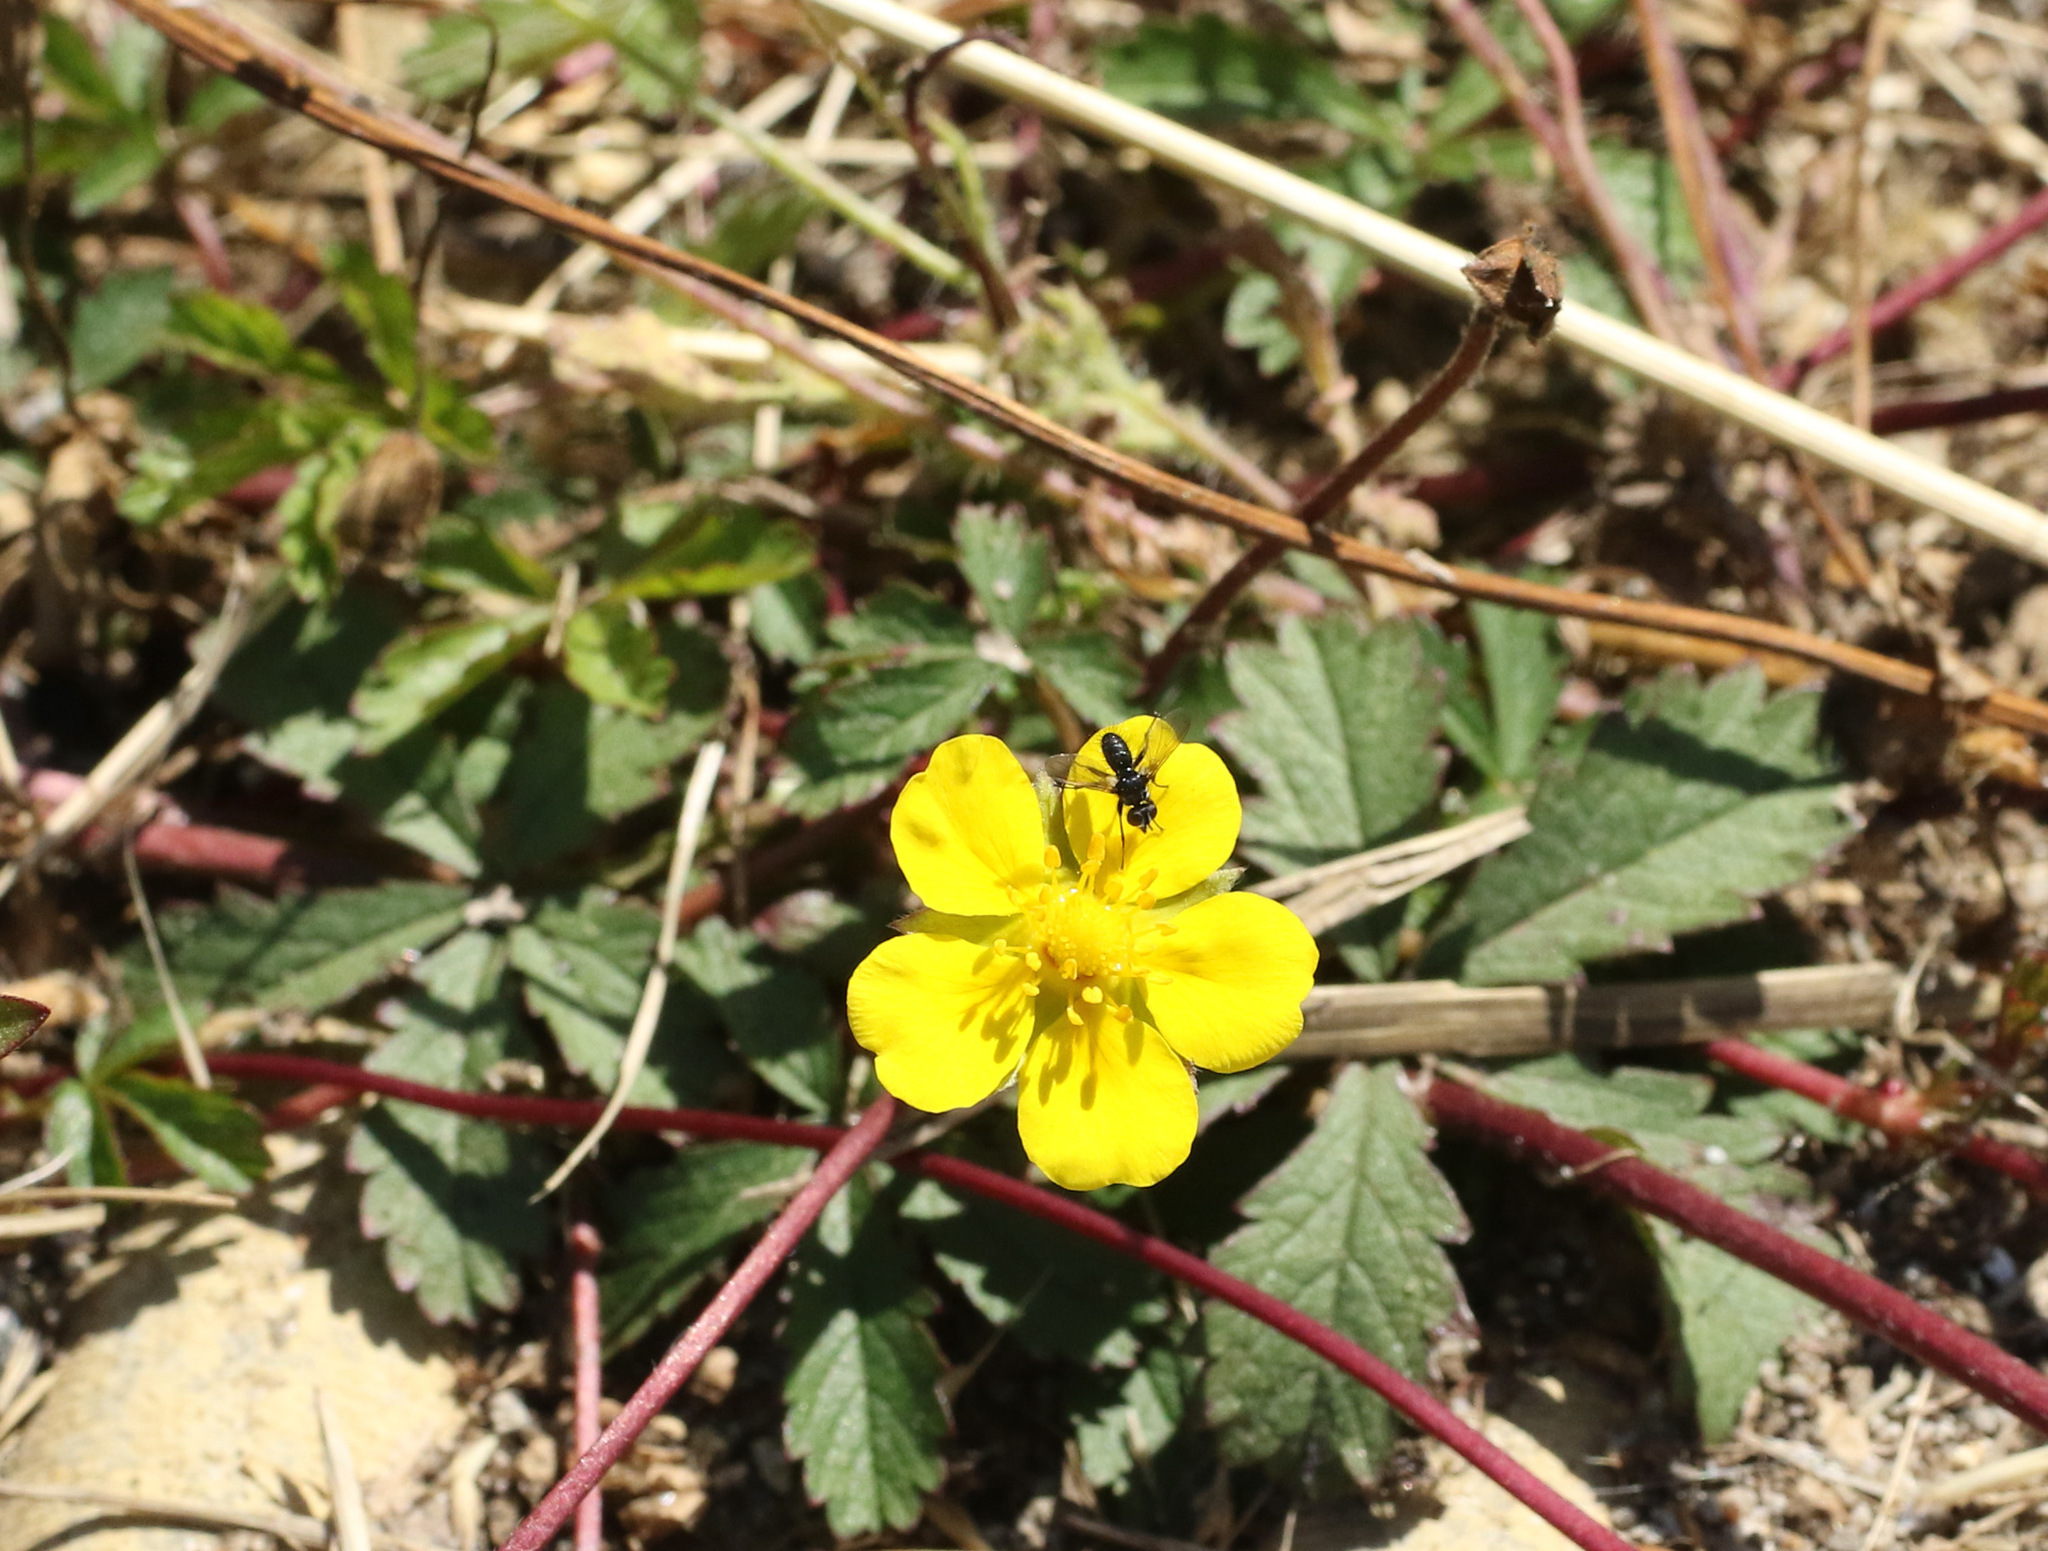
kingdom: Plantae
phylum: Tracheophyta
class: Magnoliopsida
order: Rosales
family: Rosaceae
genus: Potentilla
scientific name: Potentilla reptans
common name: Creeping cinquefoil
